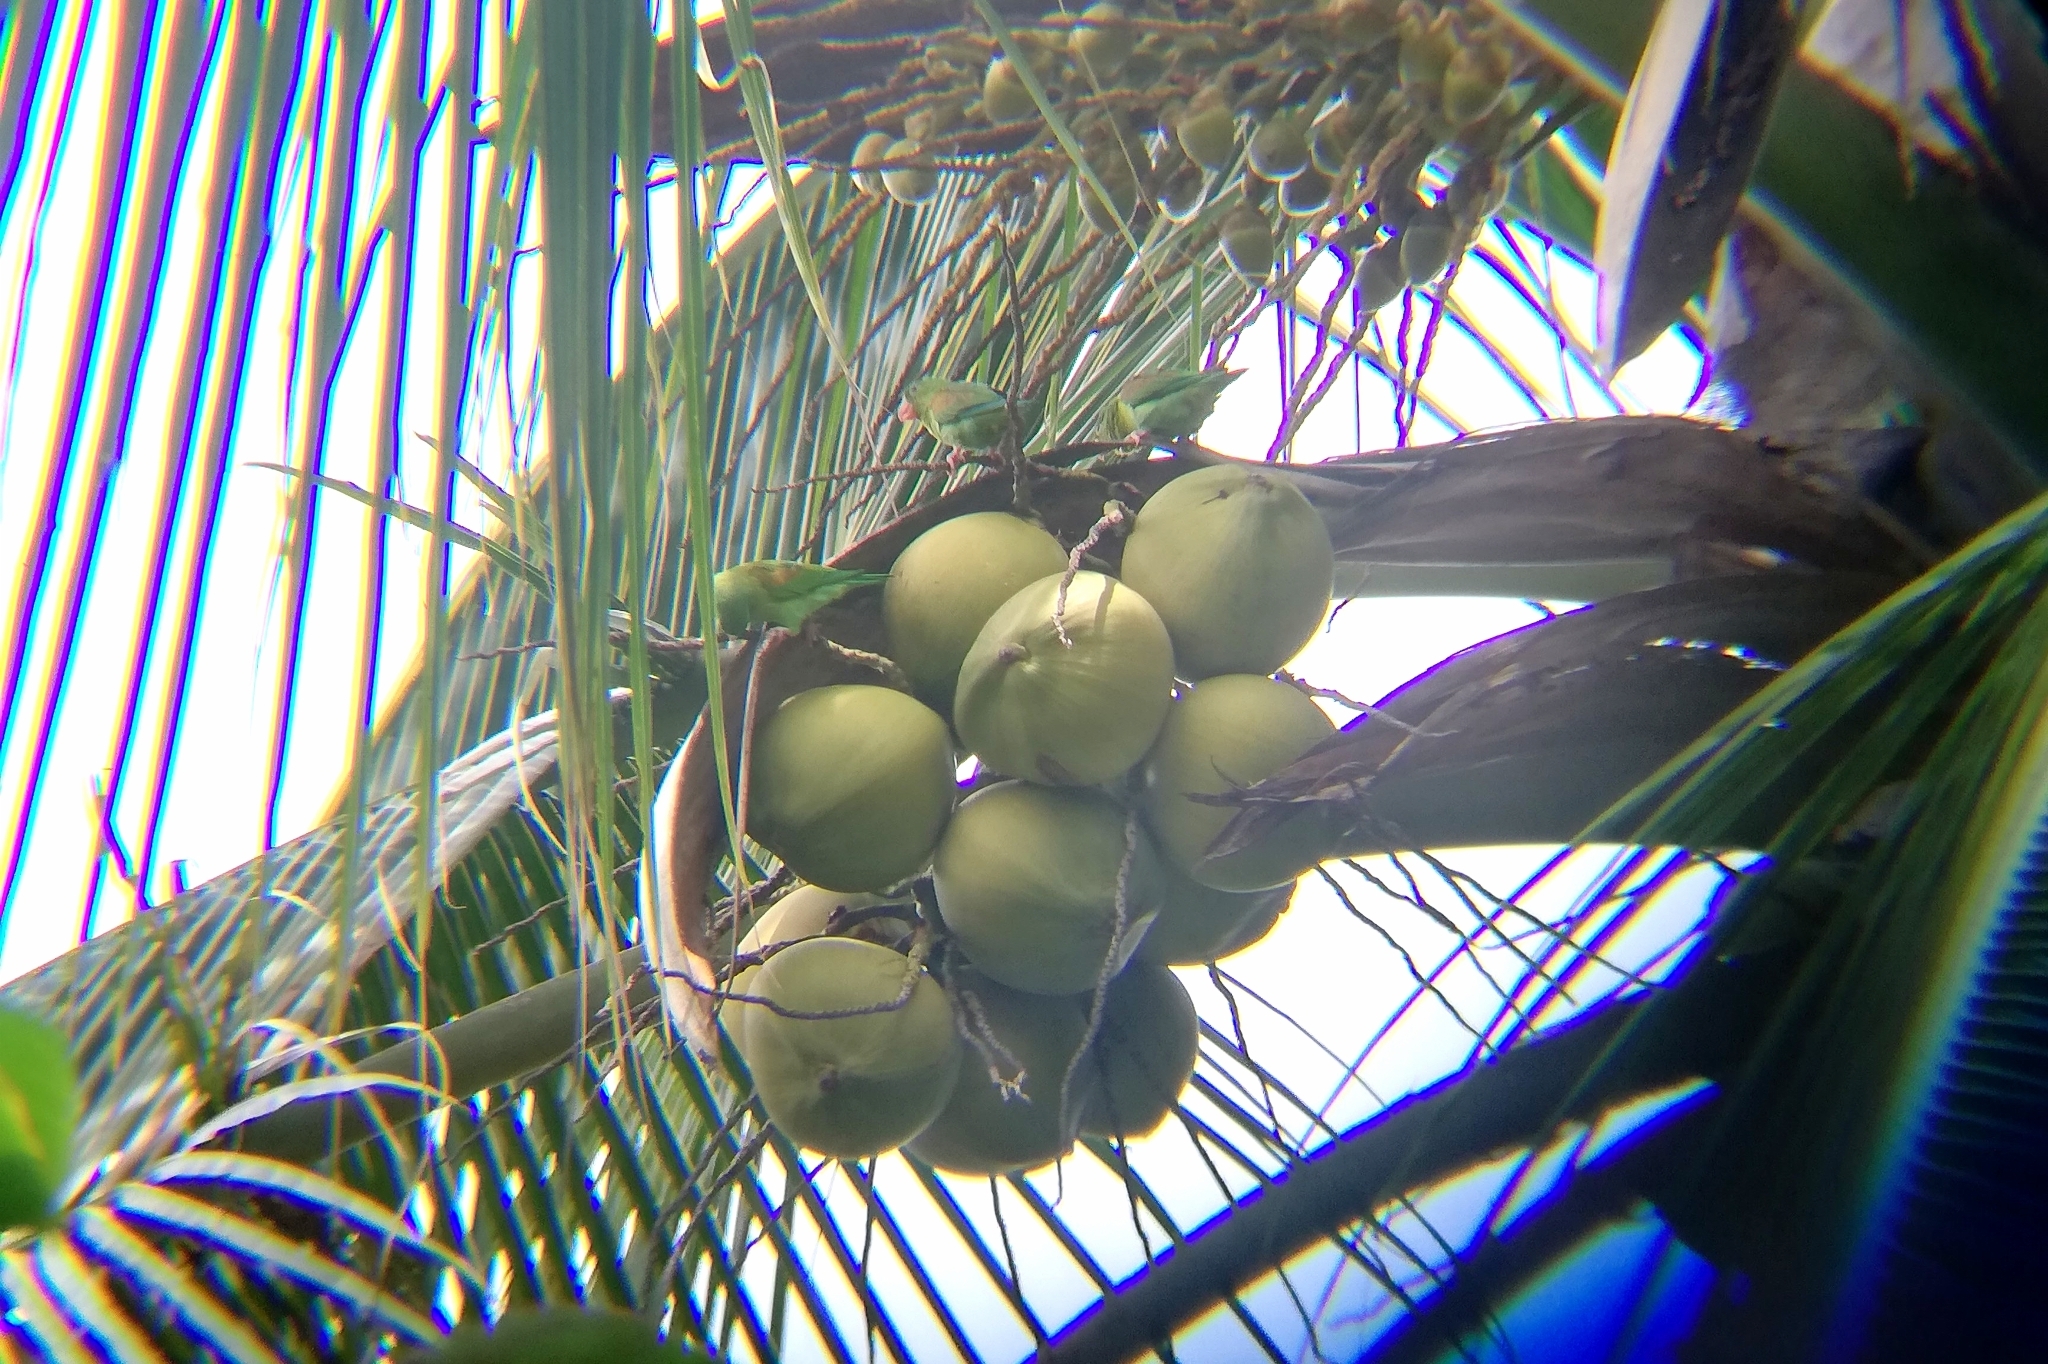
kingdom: Animalia
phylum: Chordata
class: Aves
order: Psittaciformes
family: Psittacidae
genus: Brotogeris
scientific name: Brotogeris jugularis
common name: Orange-chinned parakeet
